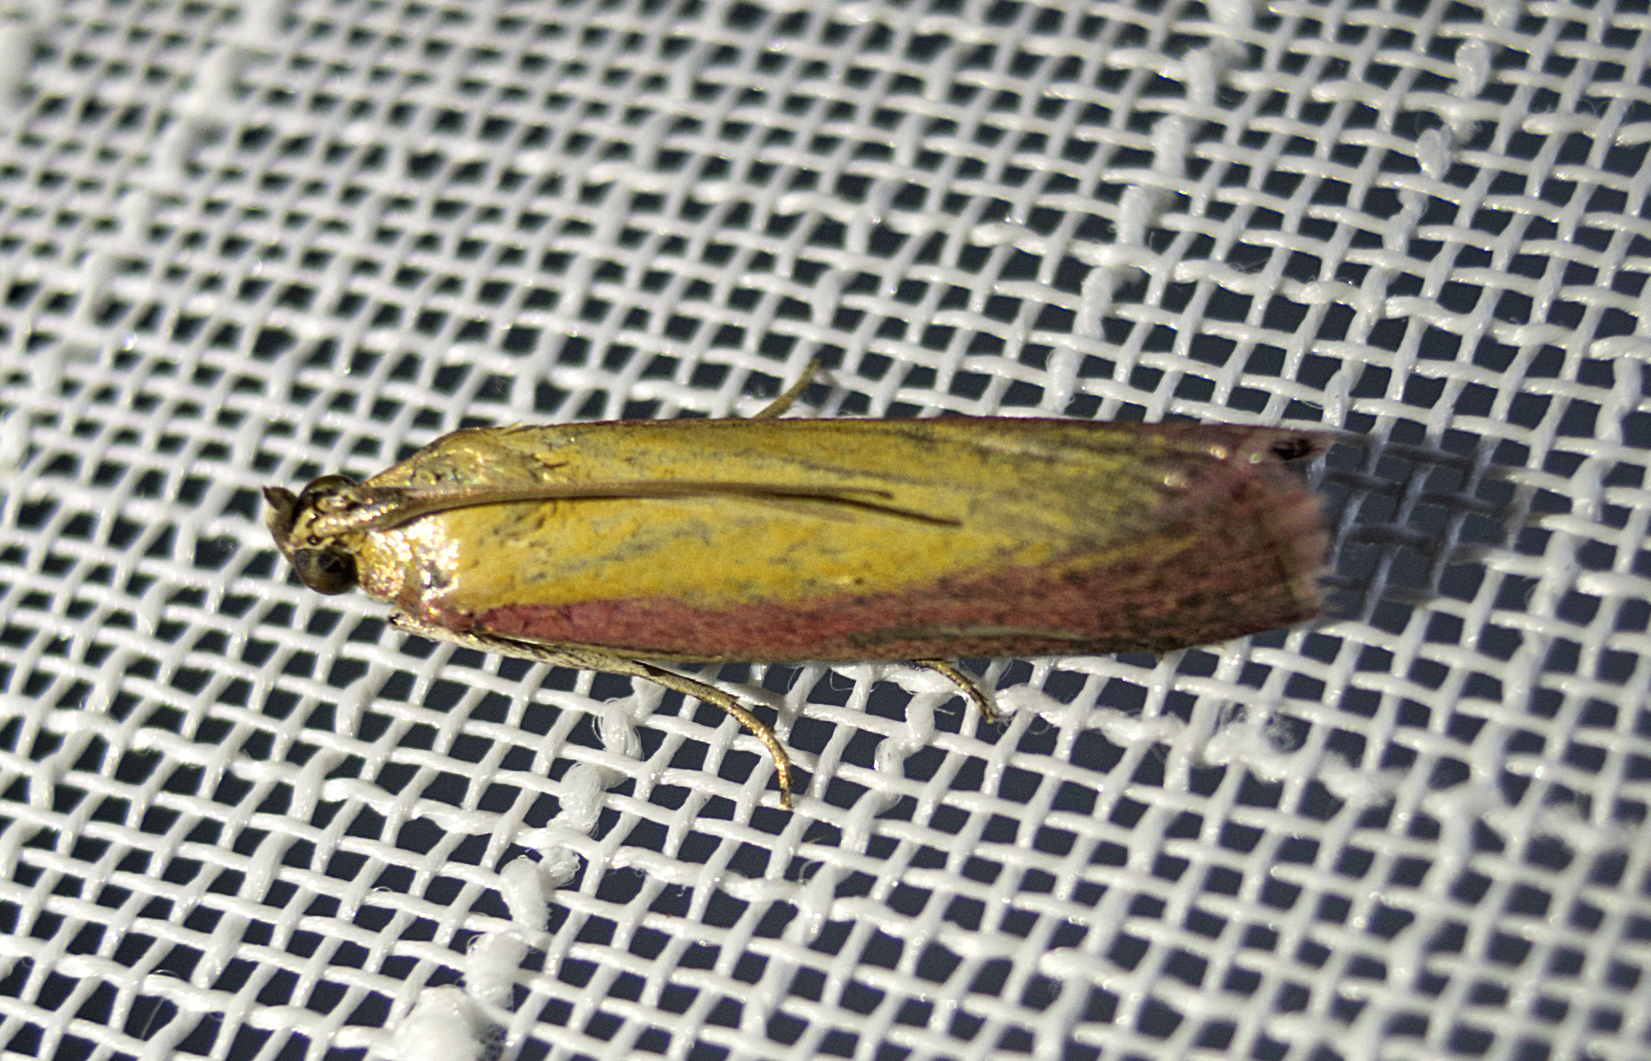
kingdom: Animalia
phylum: Arthropoda
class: Insecta
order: Lepidoptera
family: Pyralidae
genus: Oncocera
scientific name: Oncocera semirubella
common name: Rosy-striped knot-horn
